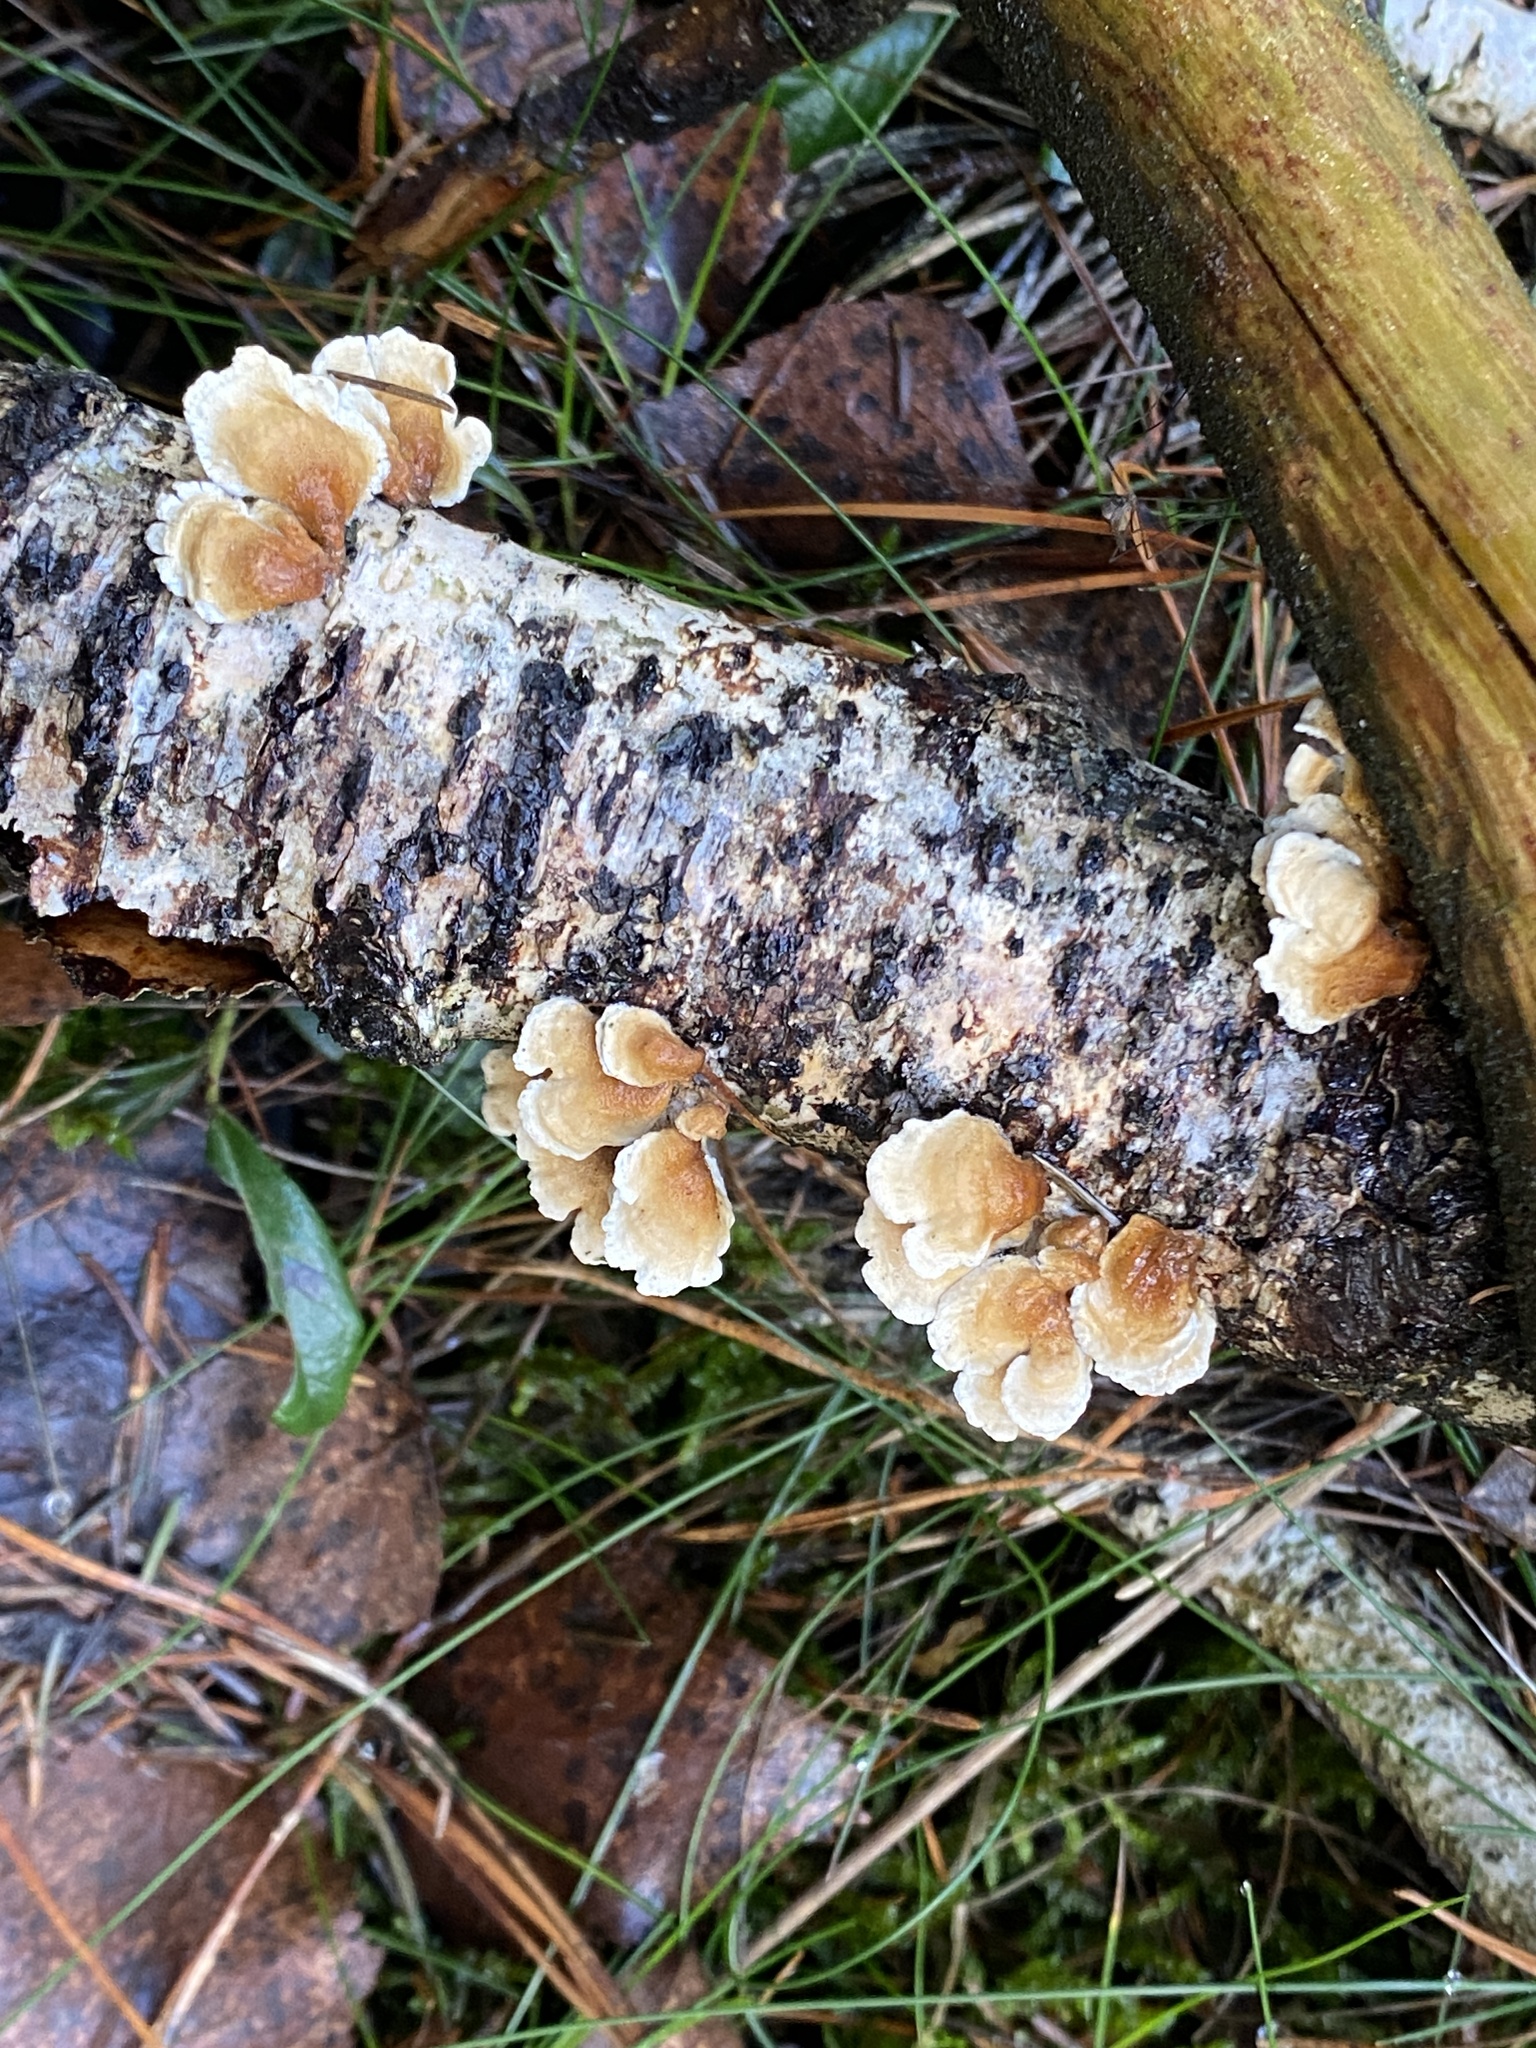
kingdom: Fungi
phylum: Basidiomycota
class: Agaricomycetes
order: Amylocorticiales
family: Amylocorticiaceae
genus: Plicaturopsis
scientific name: Plicaturopsis crispa
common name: Crimped gill
